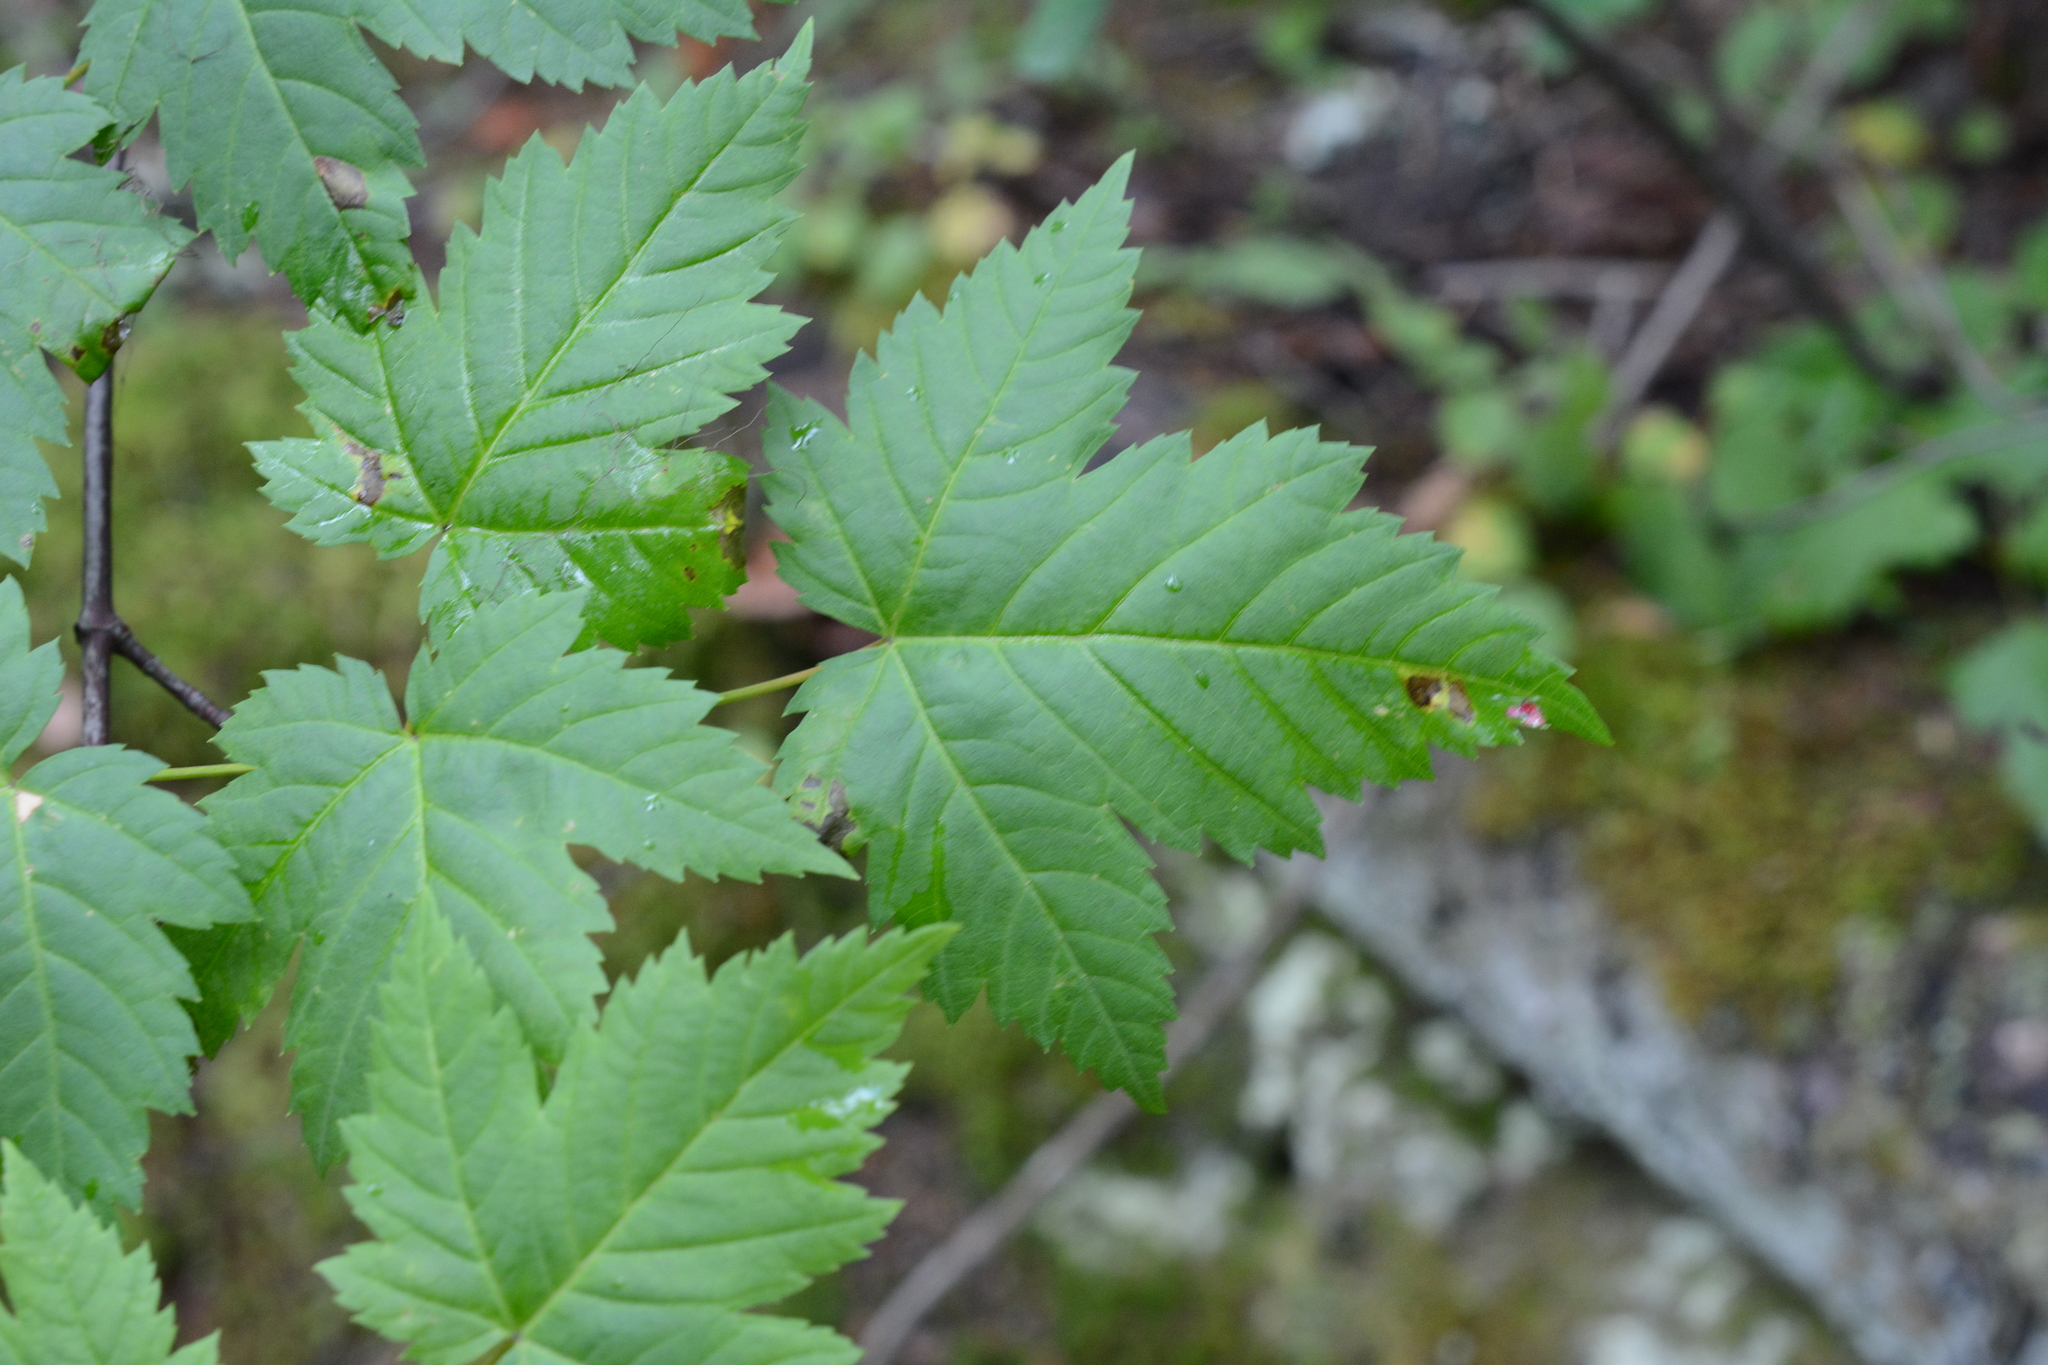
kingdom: Plantae
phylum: Tracheophyta
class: Magnoliopsida
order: Sapindales
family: Sapindaceae
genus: Acer
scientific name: Acer glabrum
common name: Rocky mountain maple
